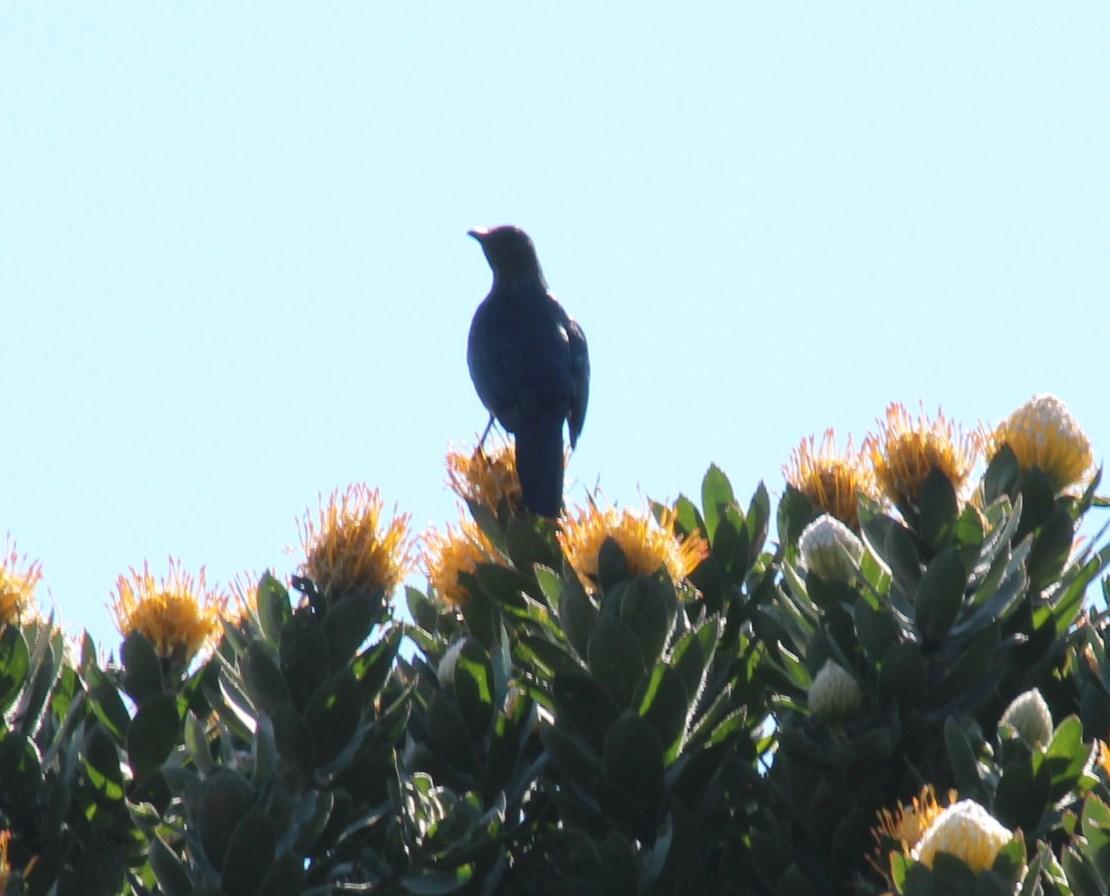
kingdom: Animalia
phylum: Chordata
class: Aves
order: Passeriformes
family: Sturnidae
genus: Onychognathus
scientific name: Onychognathus morio
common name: Red-winged starling
